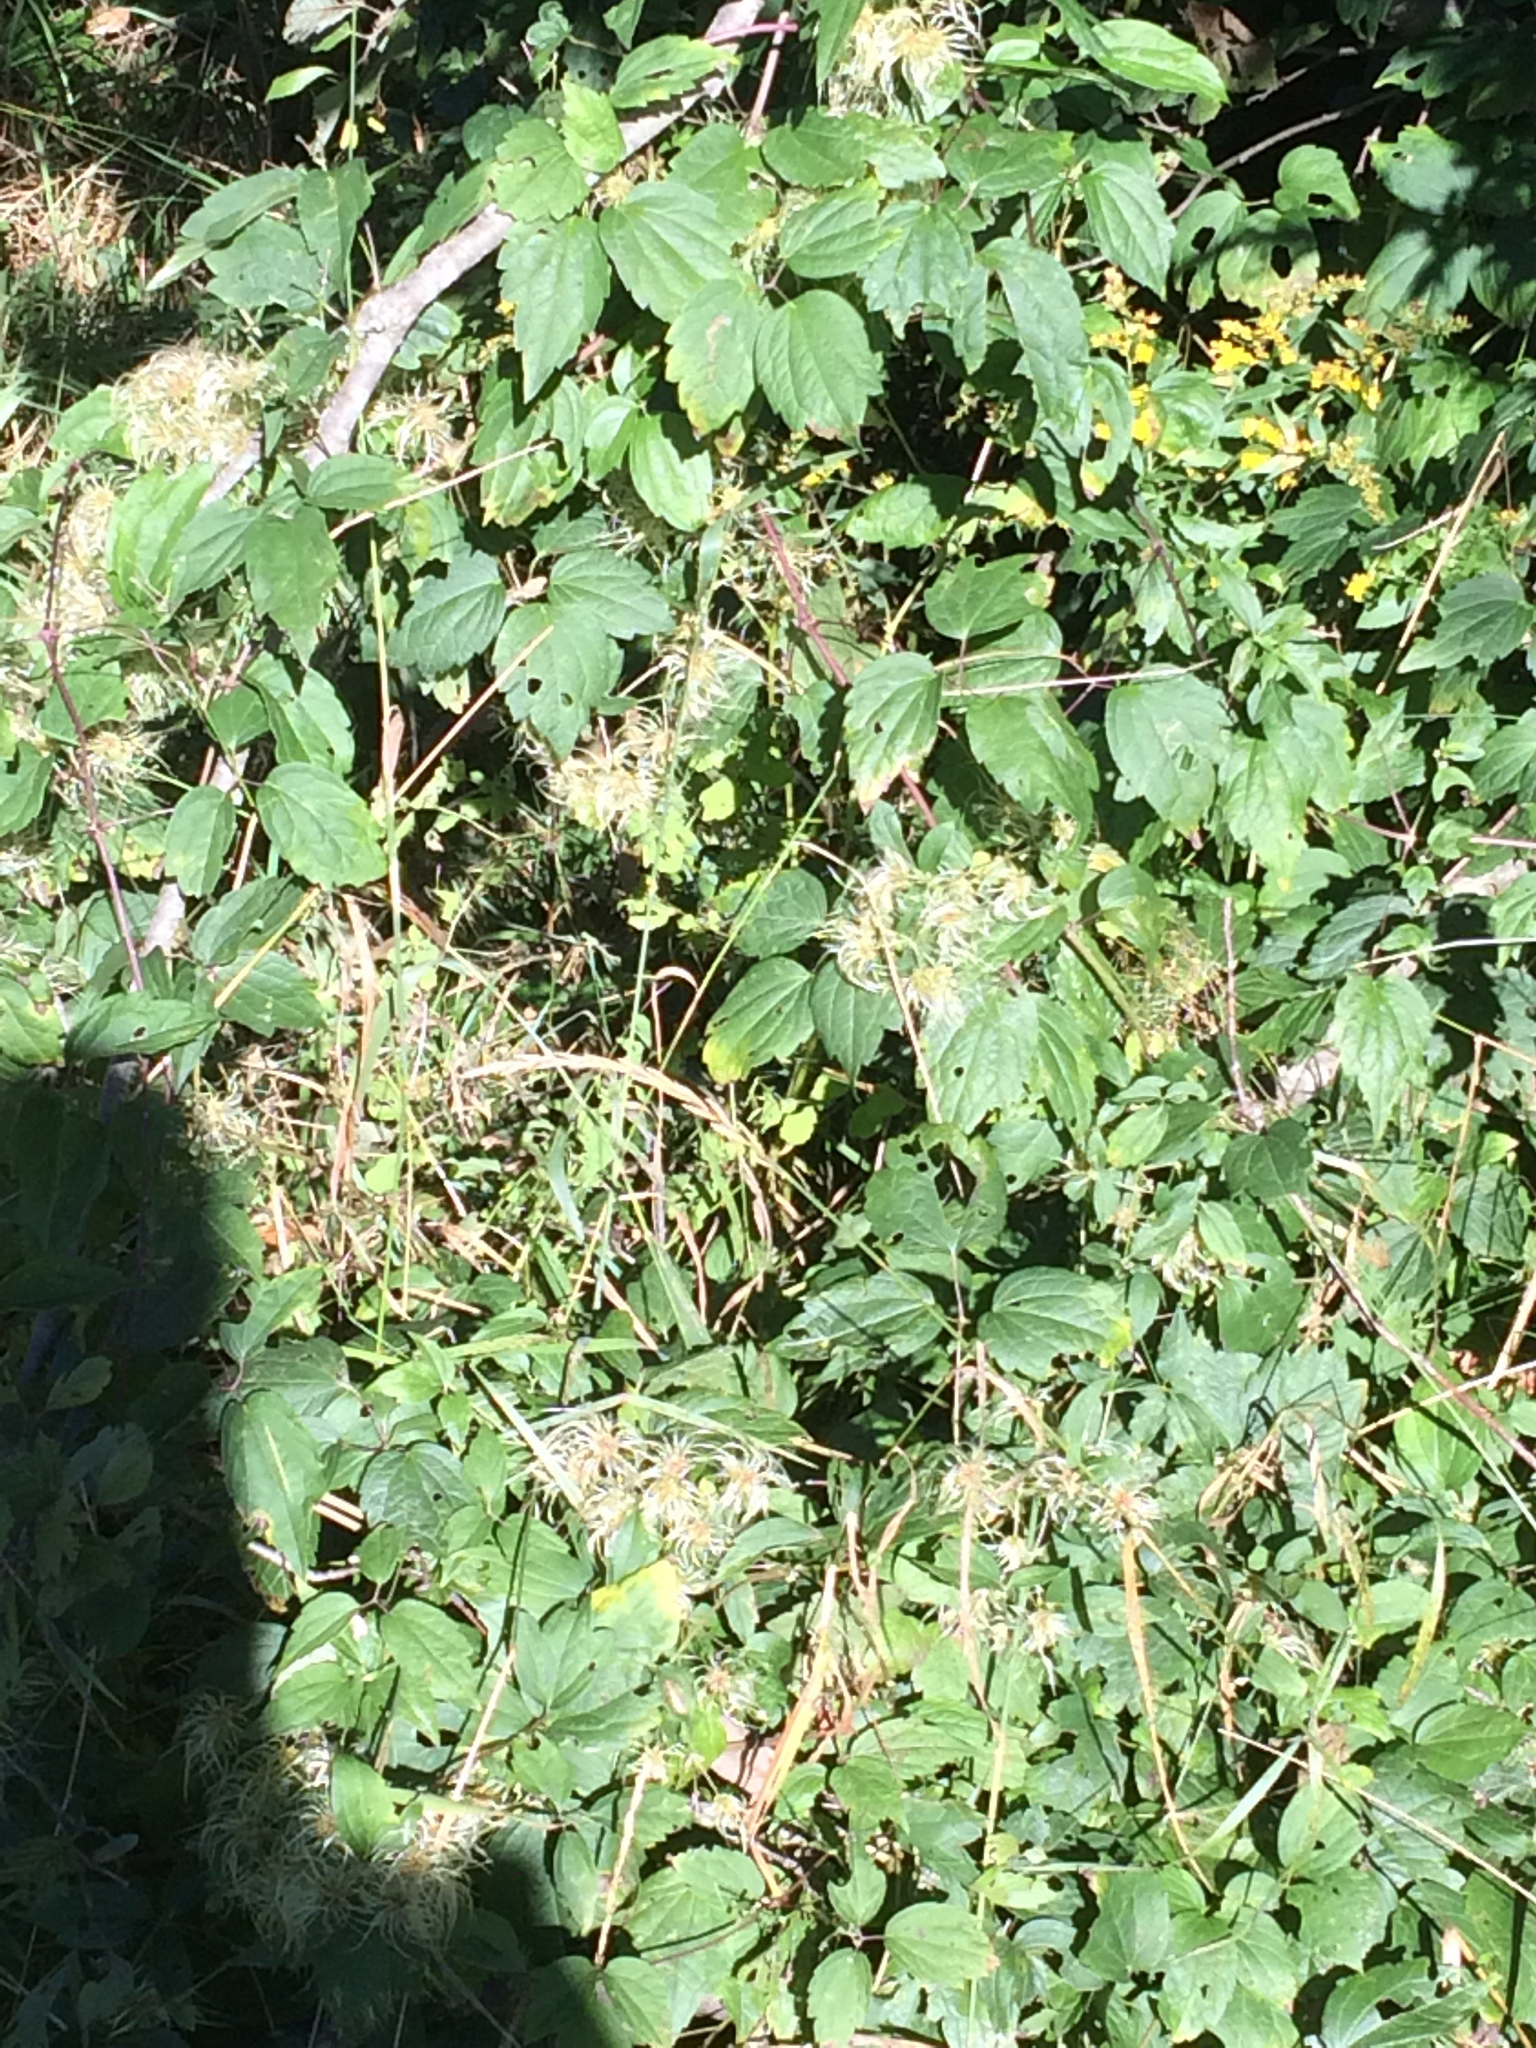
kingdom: Plantae
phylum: Tracheophyta
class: Magnoliopsida
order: Ranunculales
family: Ranunculaceae
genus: Clematis
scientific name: Clematis virginiana
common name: Virgin's-bower
